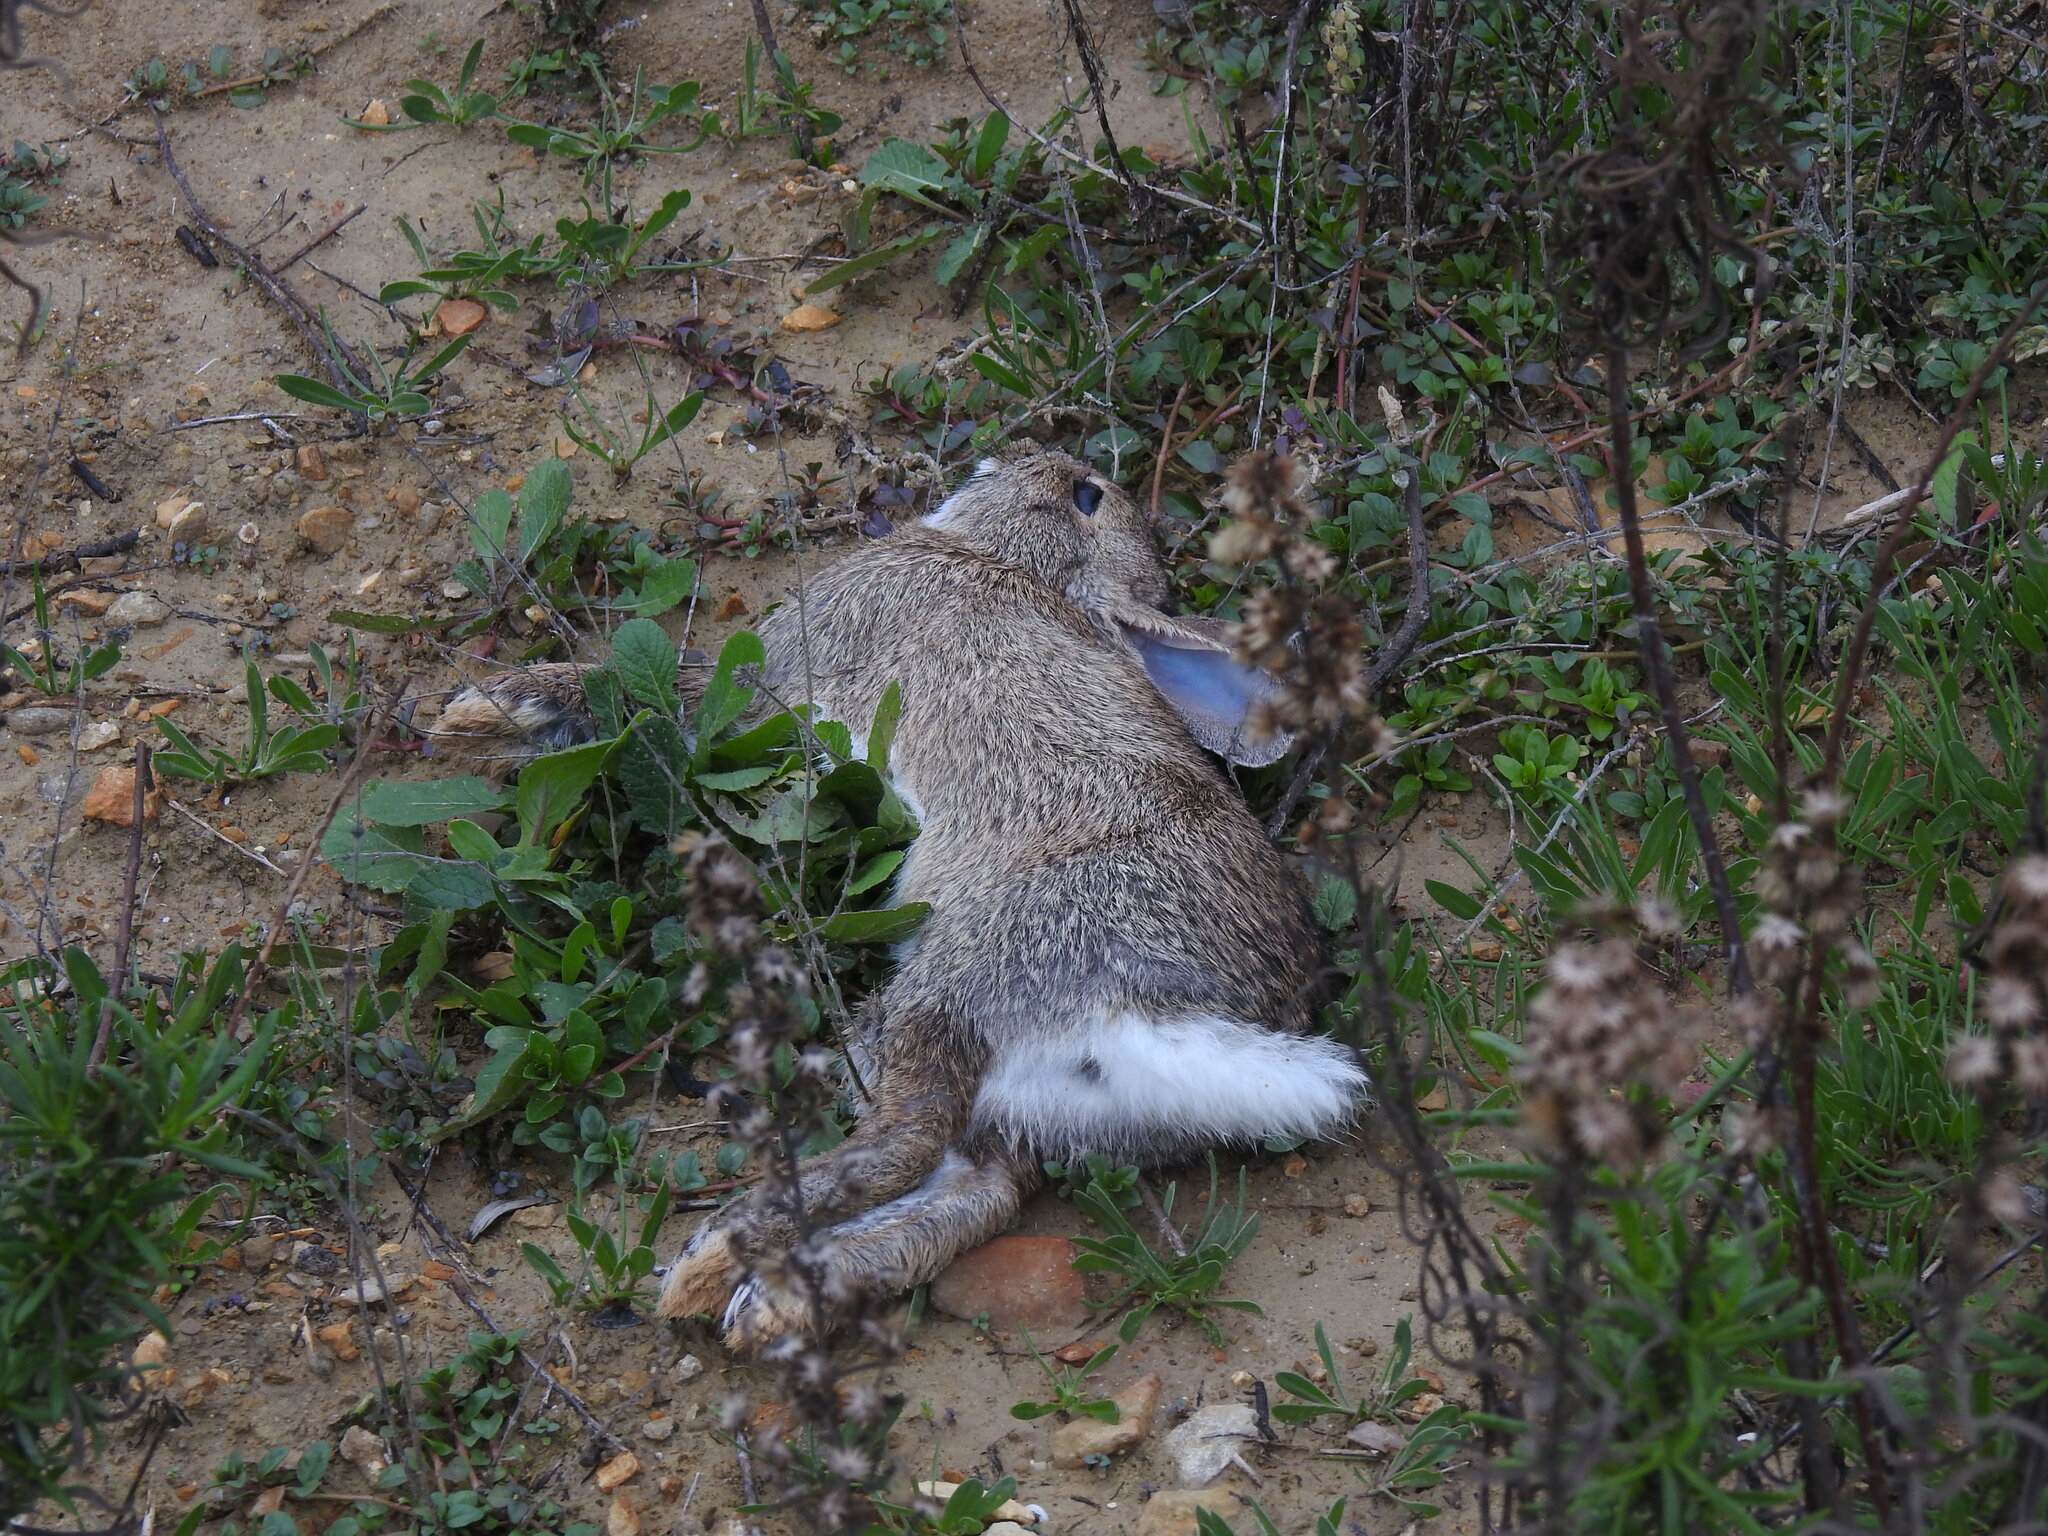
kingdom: Animalia
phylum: Chordata
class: Mammalia
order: Lagomorpha
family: Leporidae
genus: Oryctolagus
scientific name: Oryctolagus cuniculus
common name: European rabbit
